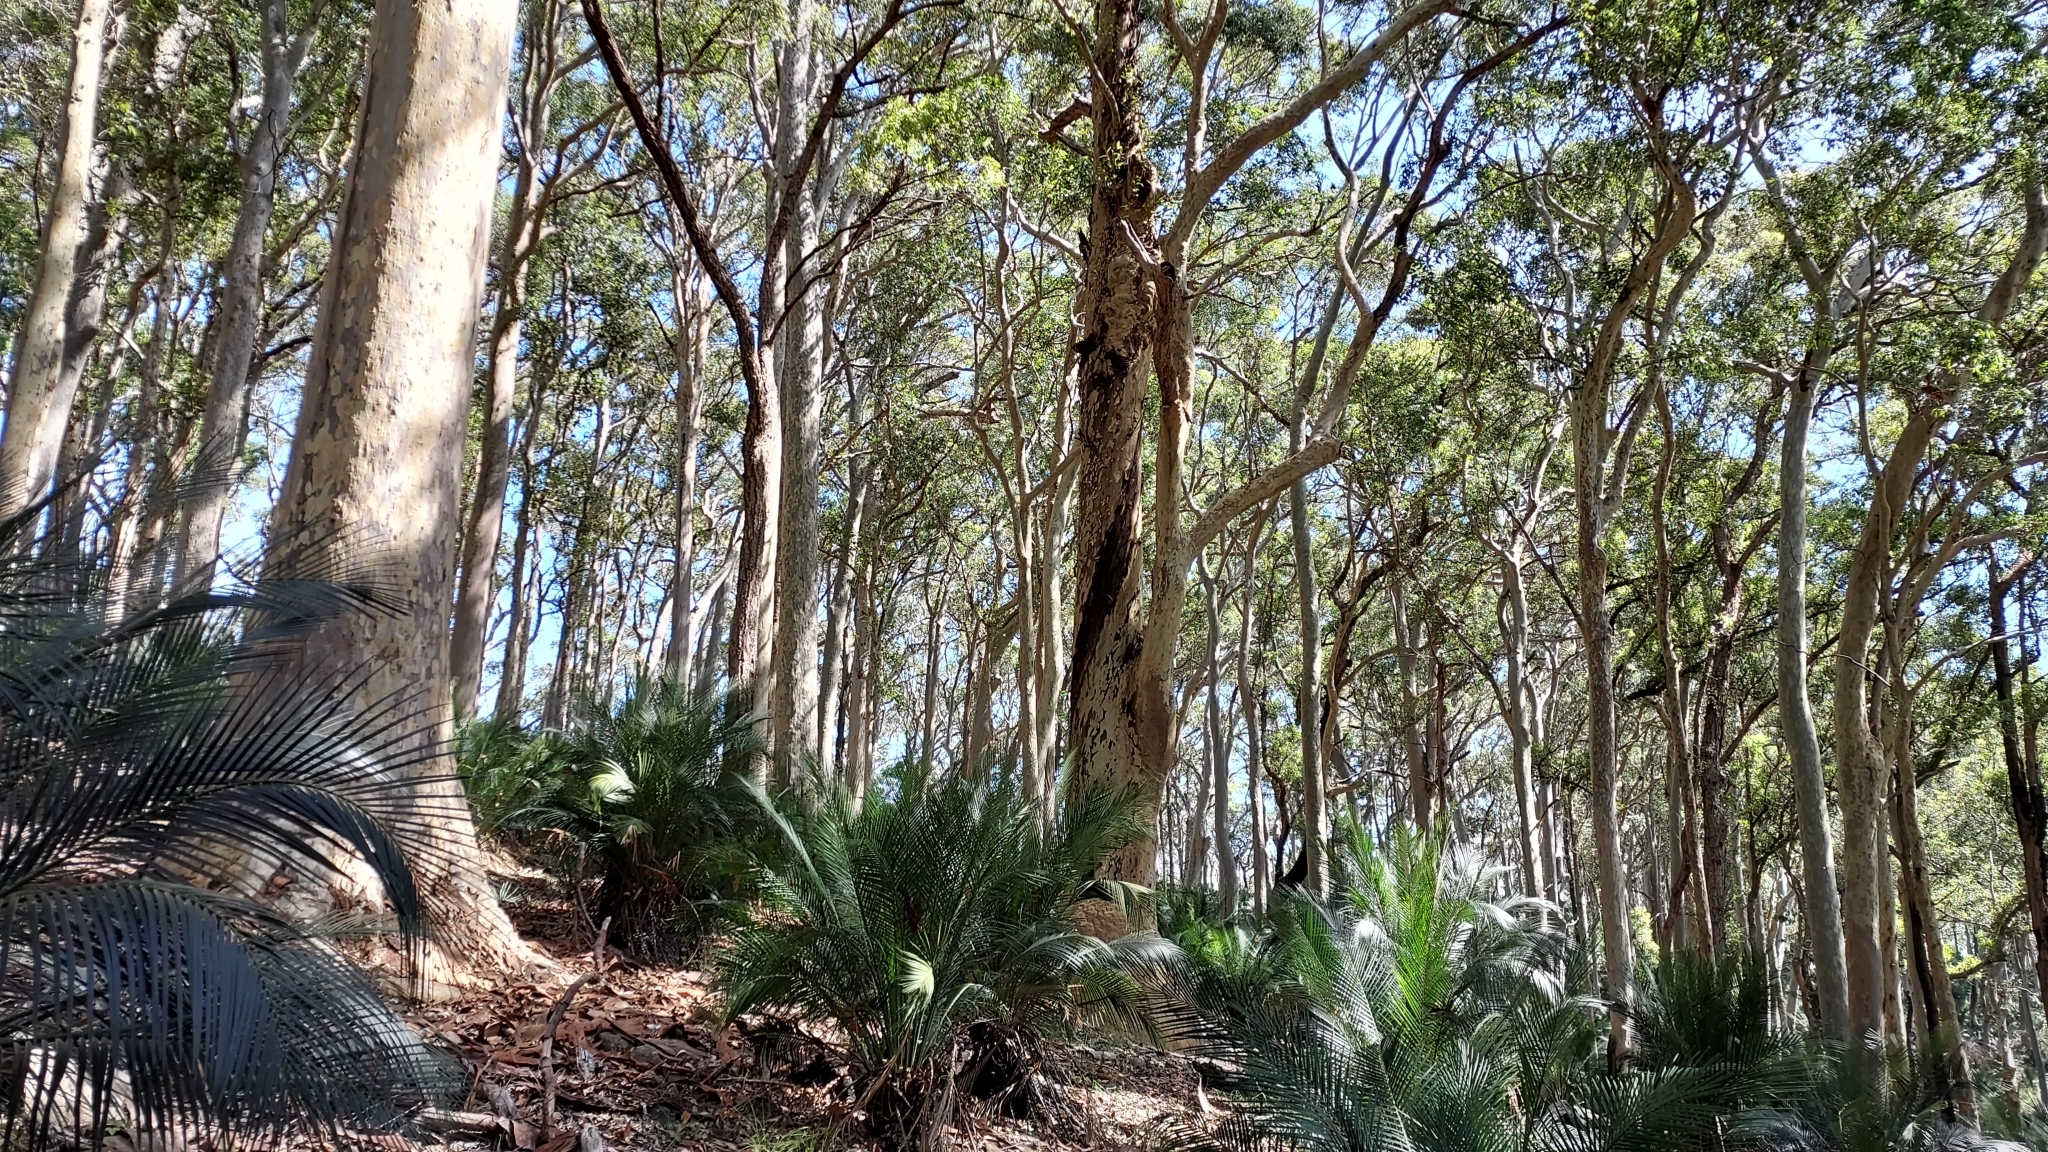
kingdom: Plantae
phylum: Tracheophyta
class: Cycadopsida
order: Cycadales
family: Zamiaceae
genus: Macrozamia
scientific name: Macrozamia communis
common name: Burrawong
